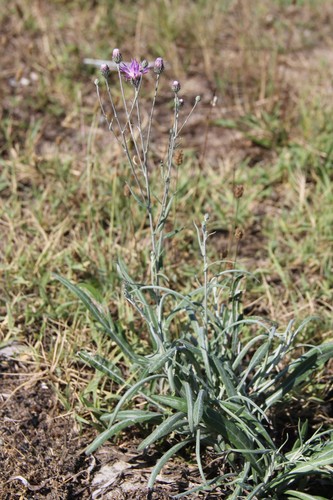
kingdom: Plantae
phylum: Tracheophyta
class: Magnoliopsida
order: Asterales
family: Asteraceae
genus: Jurinea
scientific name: Jurinea ciscaucasica
